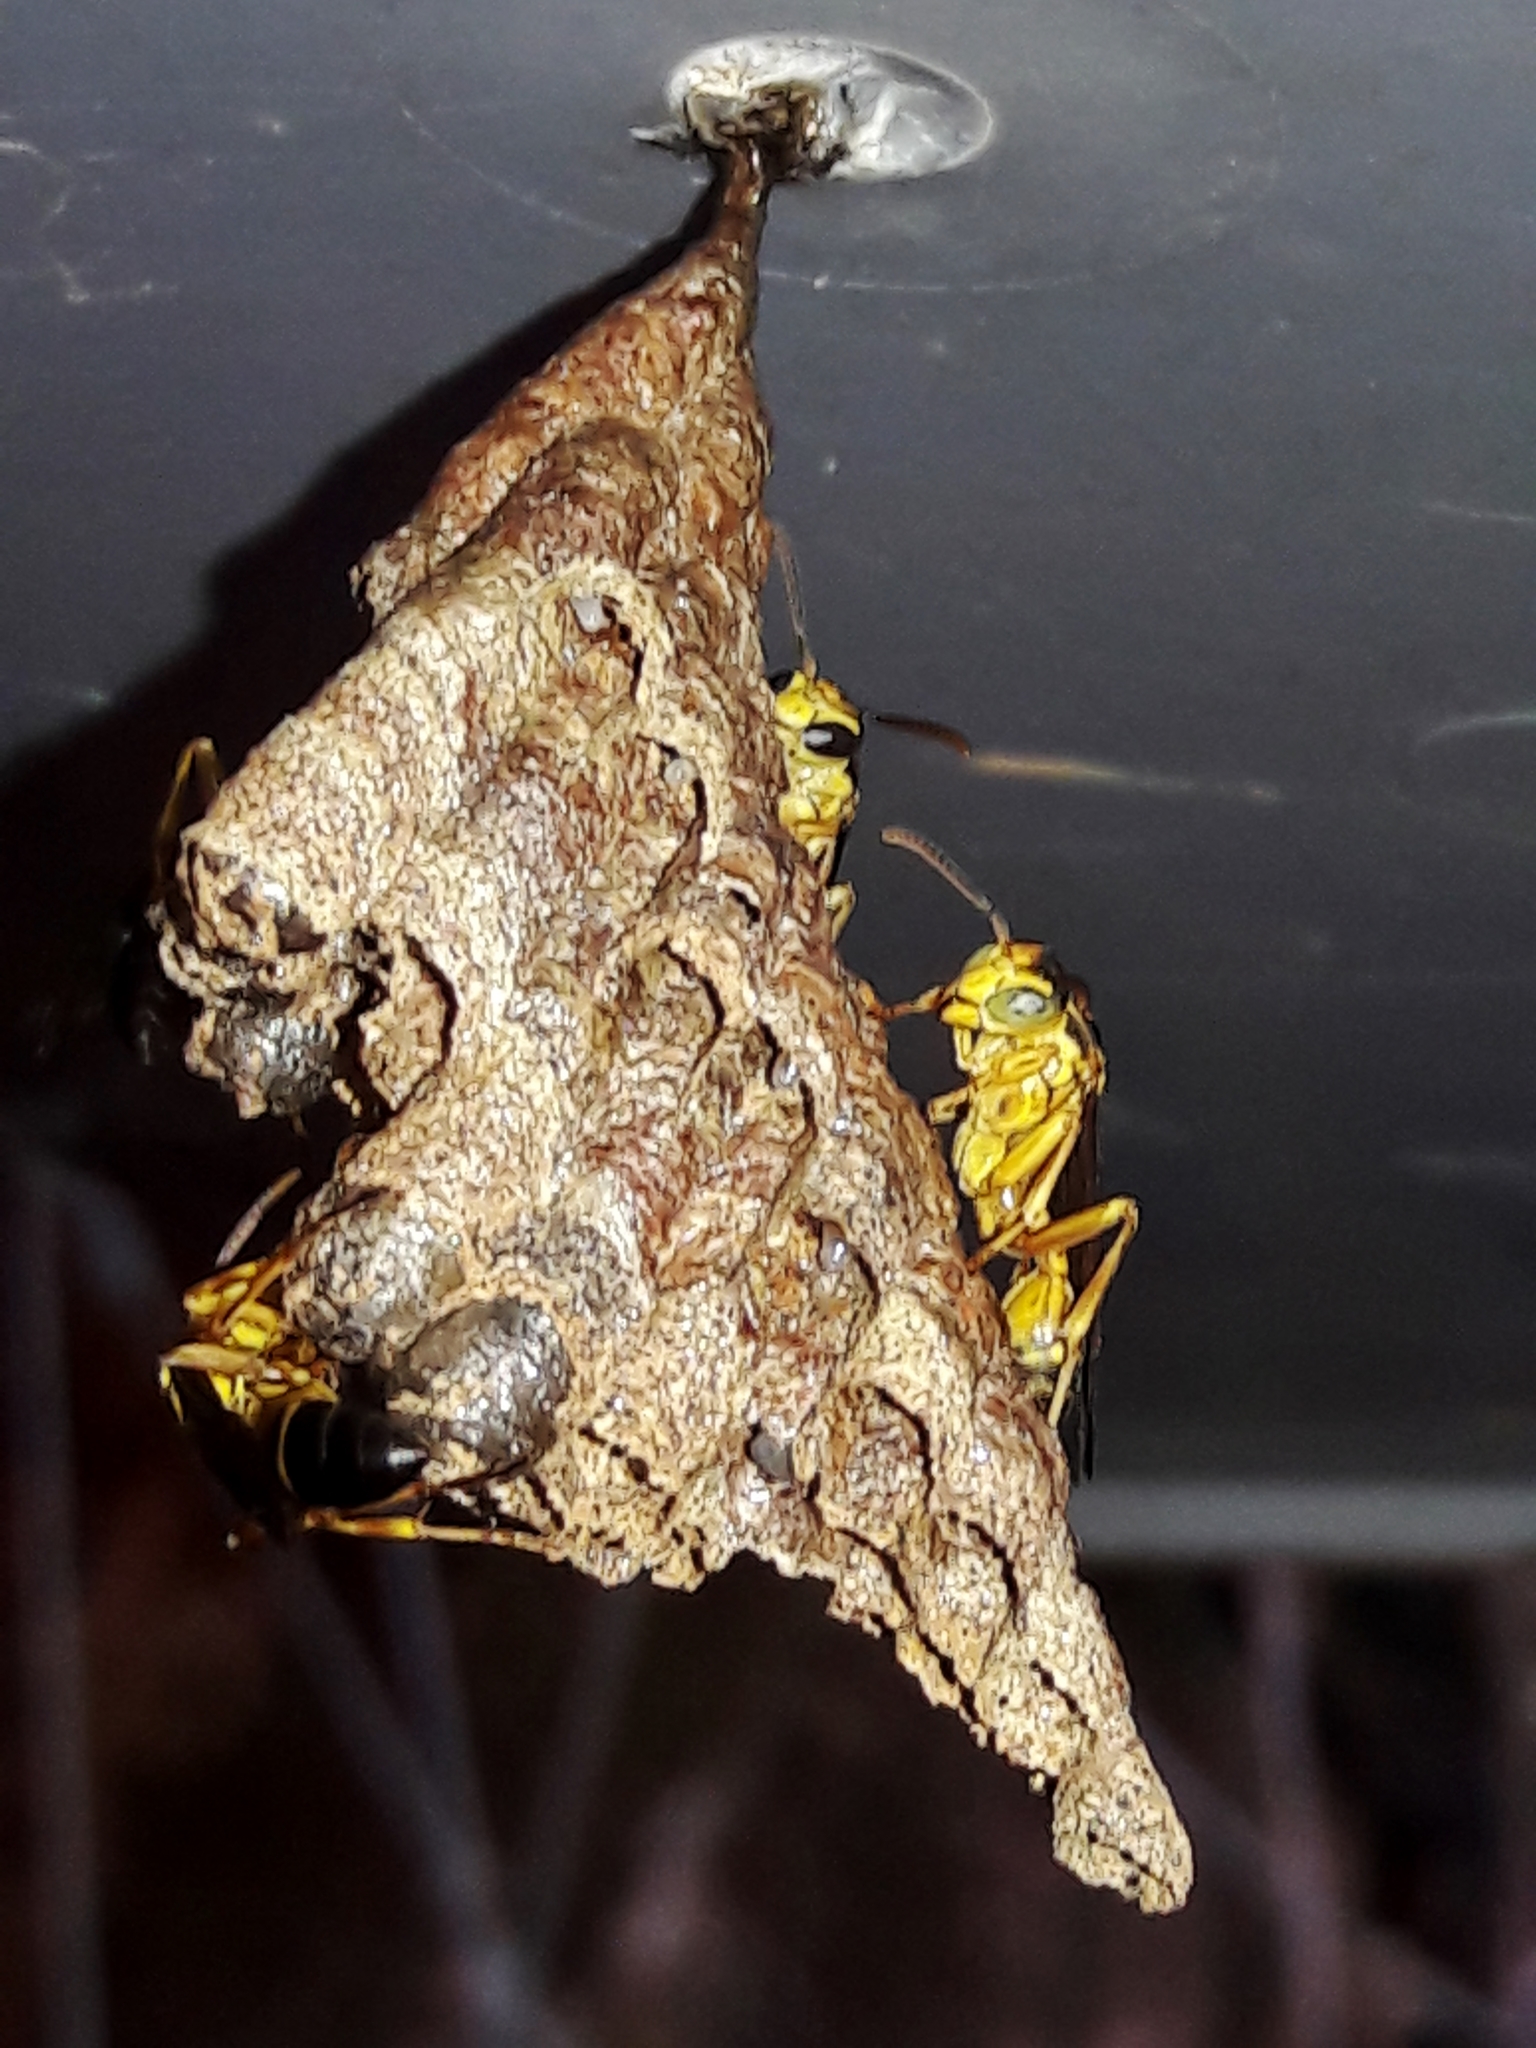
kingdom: Animalia
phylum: Arthropoda
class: Insecta
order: Hymenoptera
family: Vespidae
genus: Mischocyttarus
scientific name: Mischocyttarus cerberus
